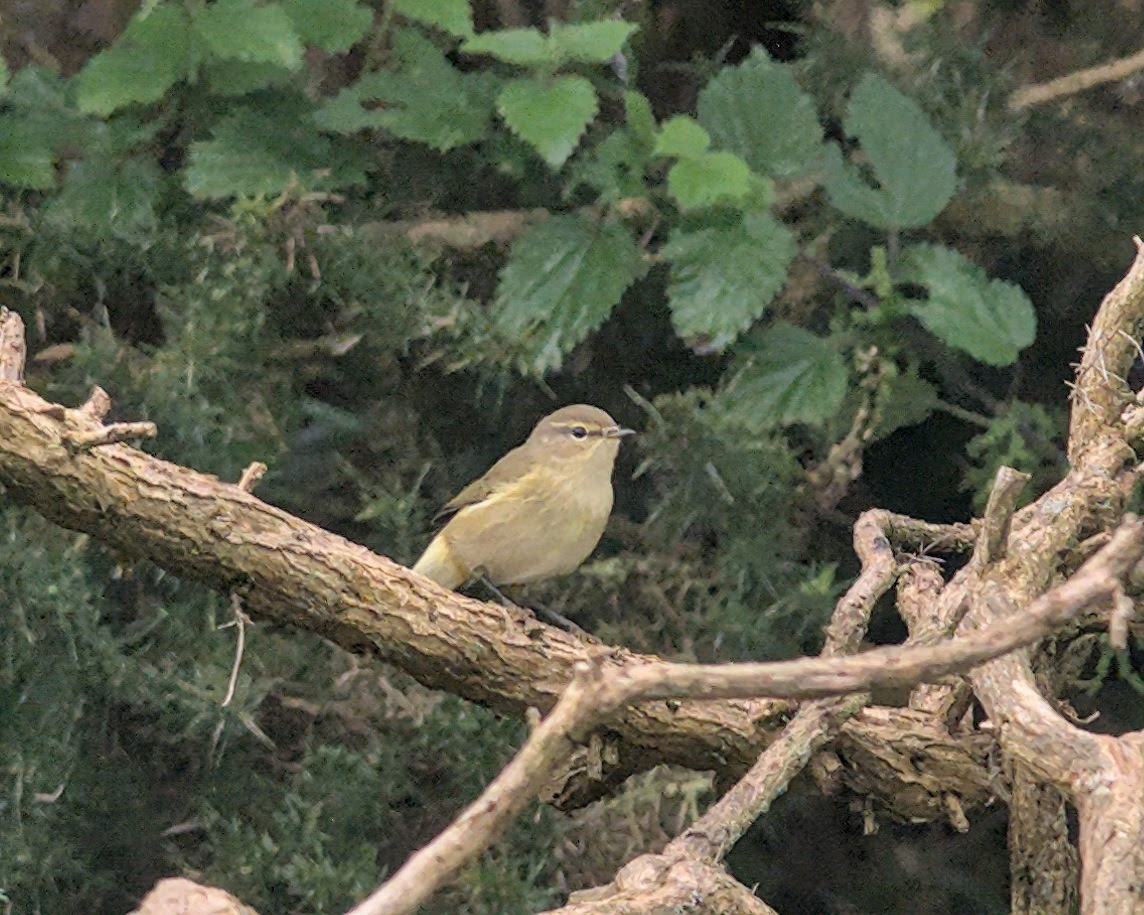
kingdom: Animalia
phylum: Chordata
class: Aves
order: Passeriformes
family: Phylloscopidae
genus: Phylloscopus
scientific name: Phylloscopus collybita
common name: Common chiffchaff
